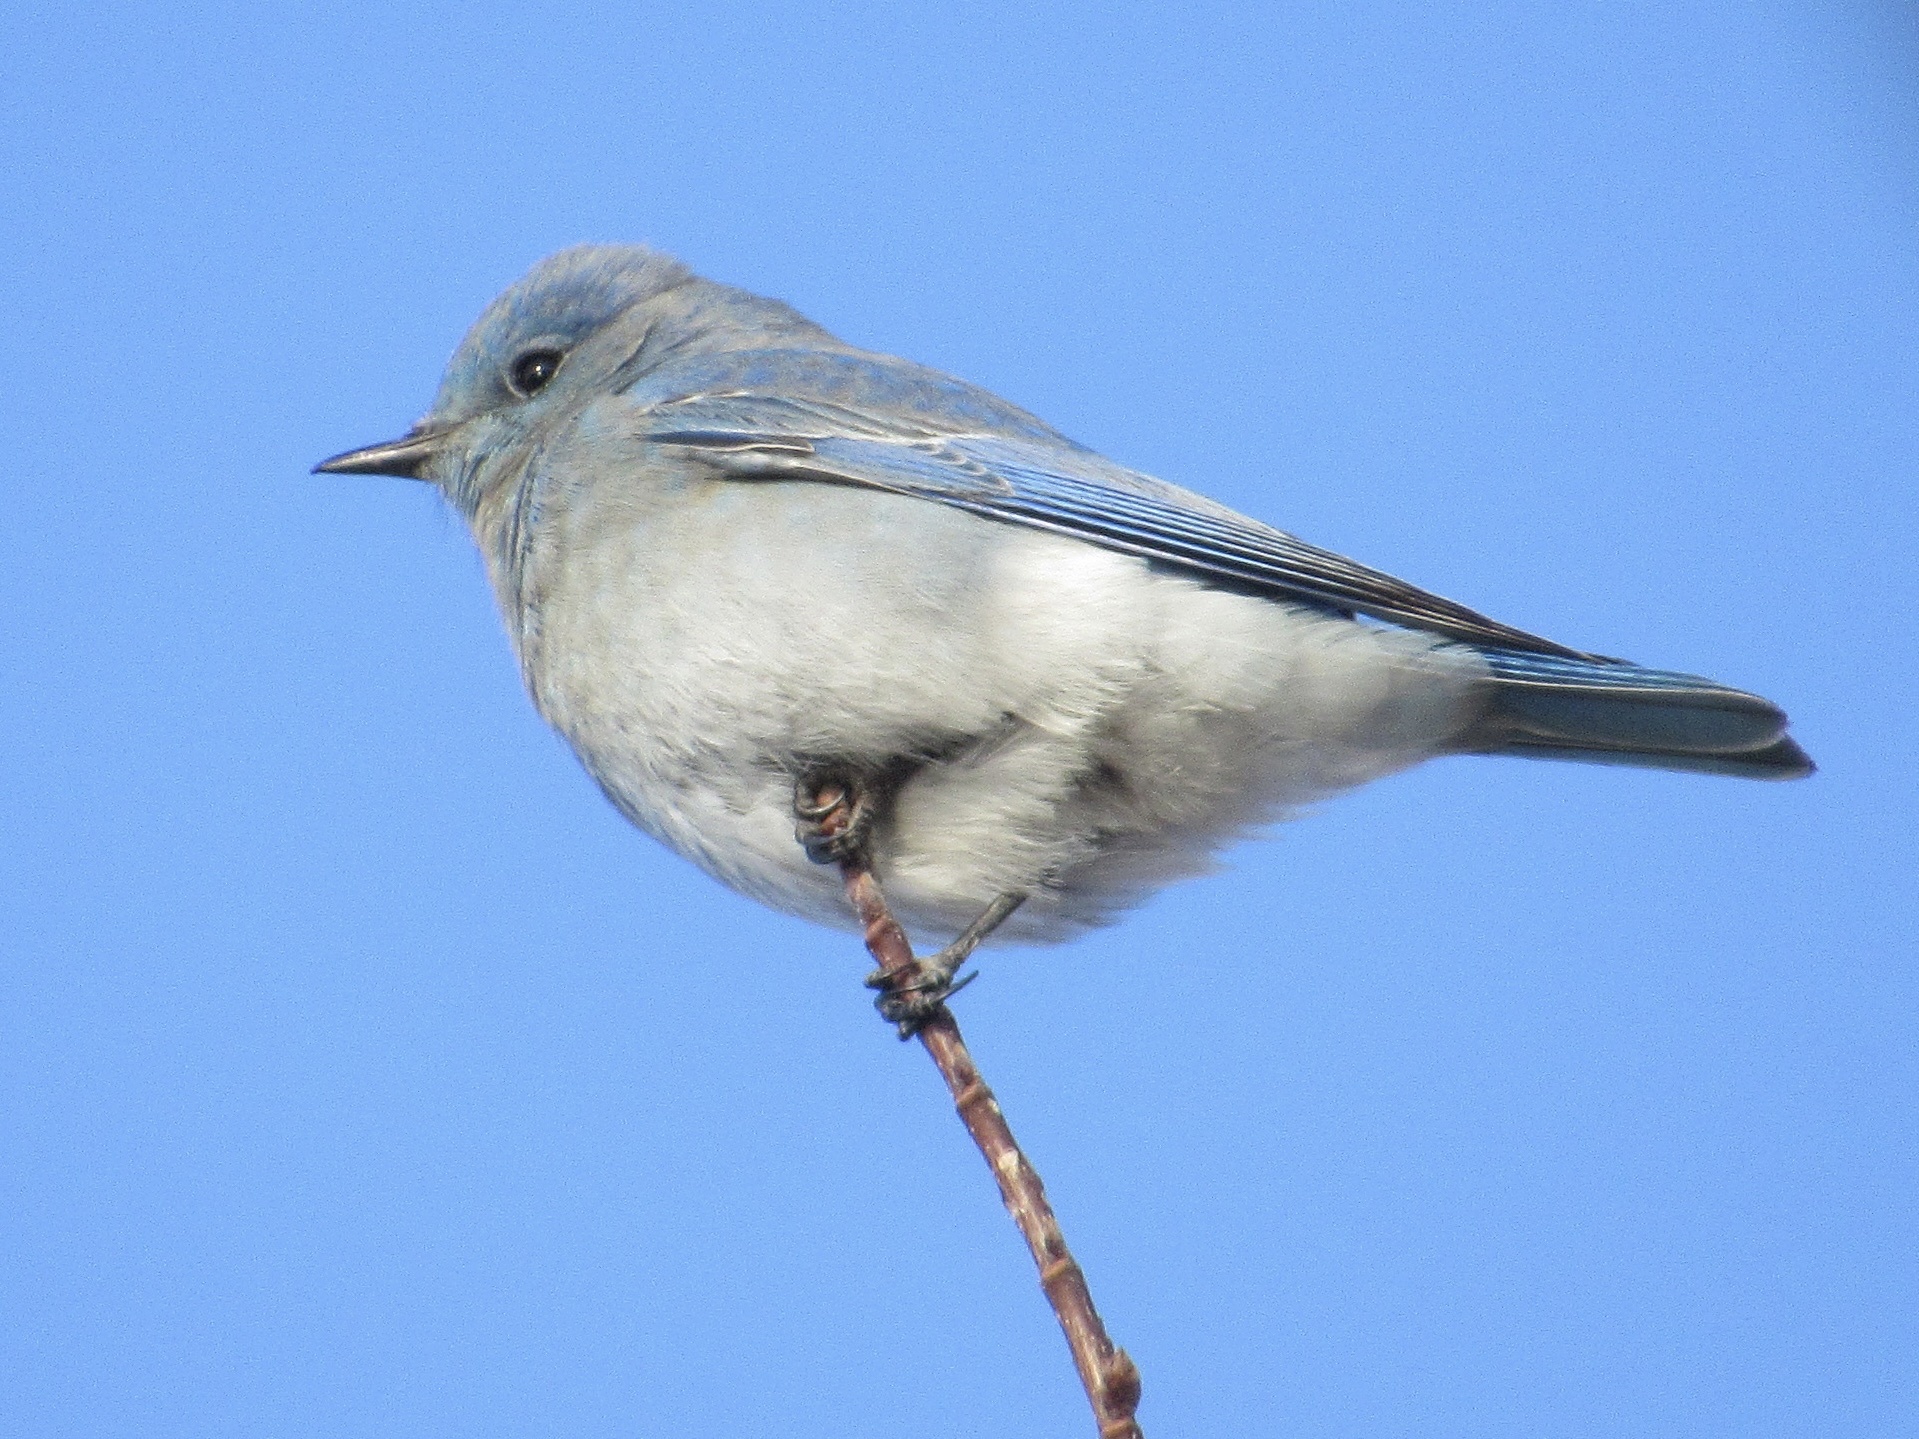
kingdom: Animalia
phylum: Chordata
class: Aves
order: Passeriformes
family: Turdidae
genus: Sialia
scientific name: Sialia currucoides
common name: Mountain bluebird
